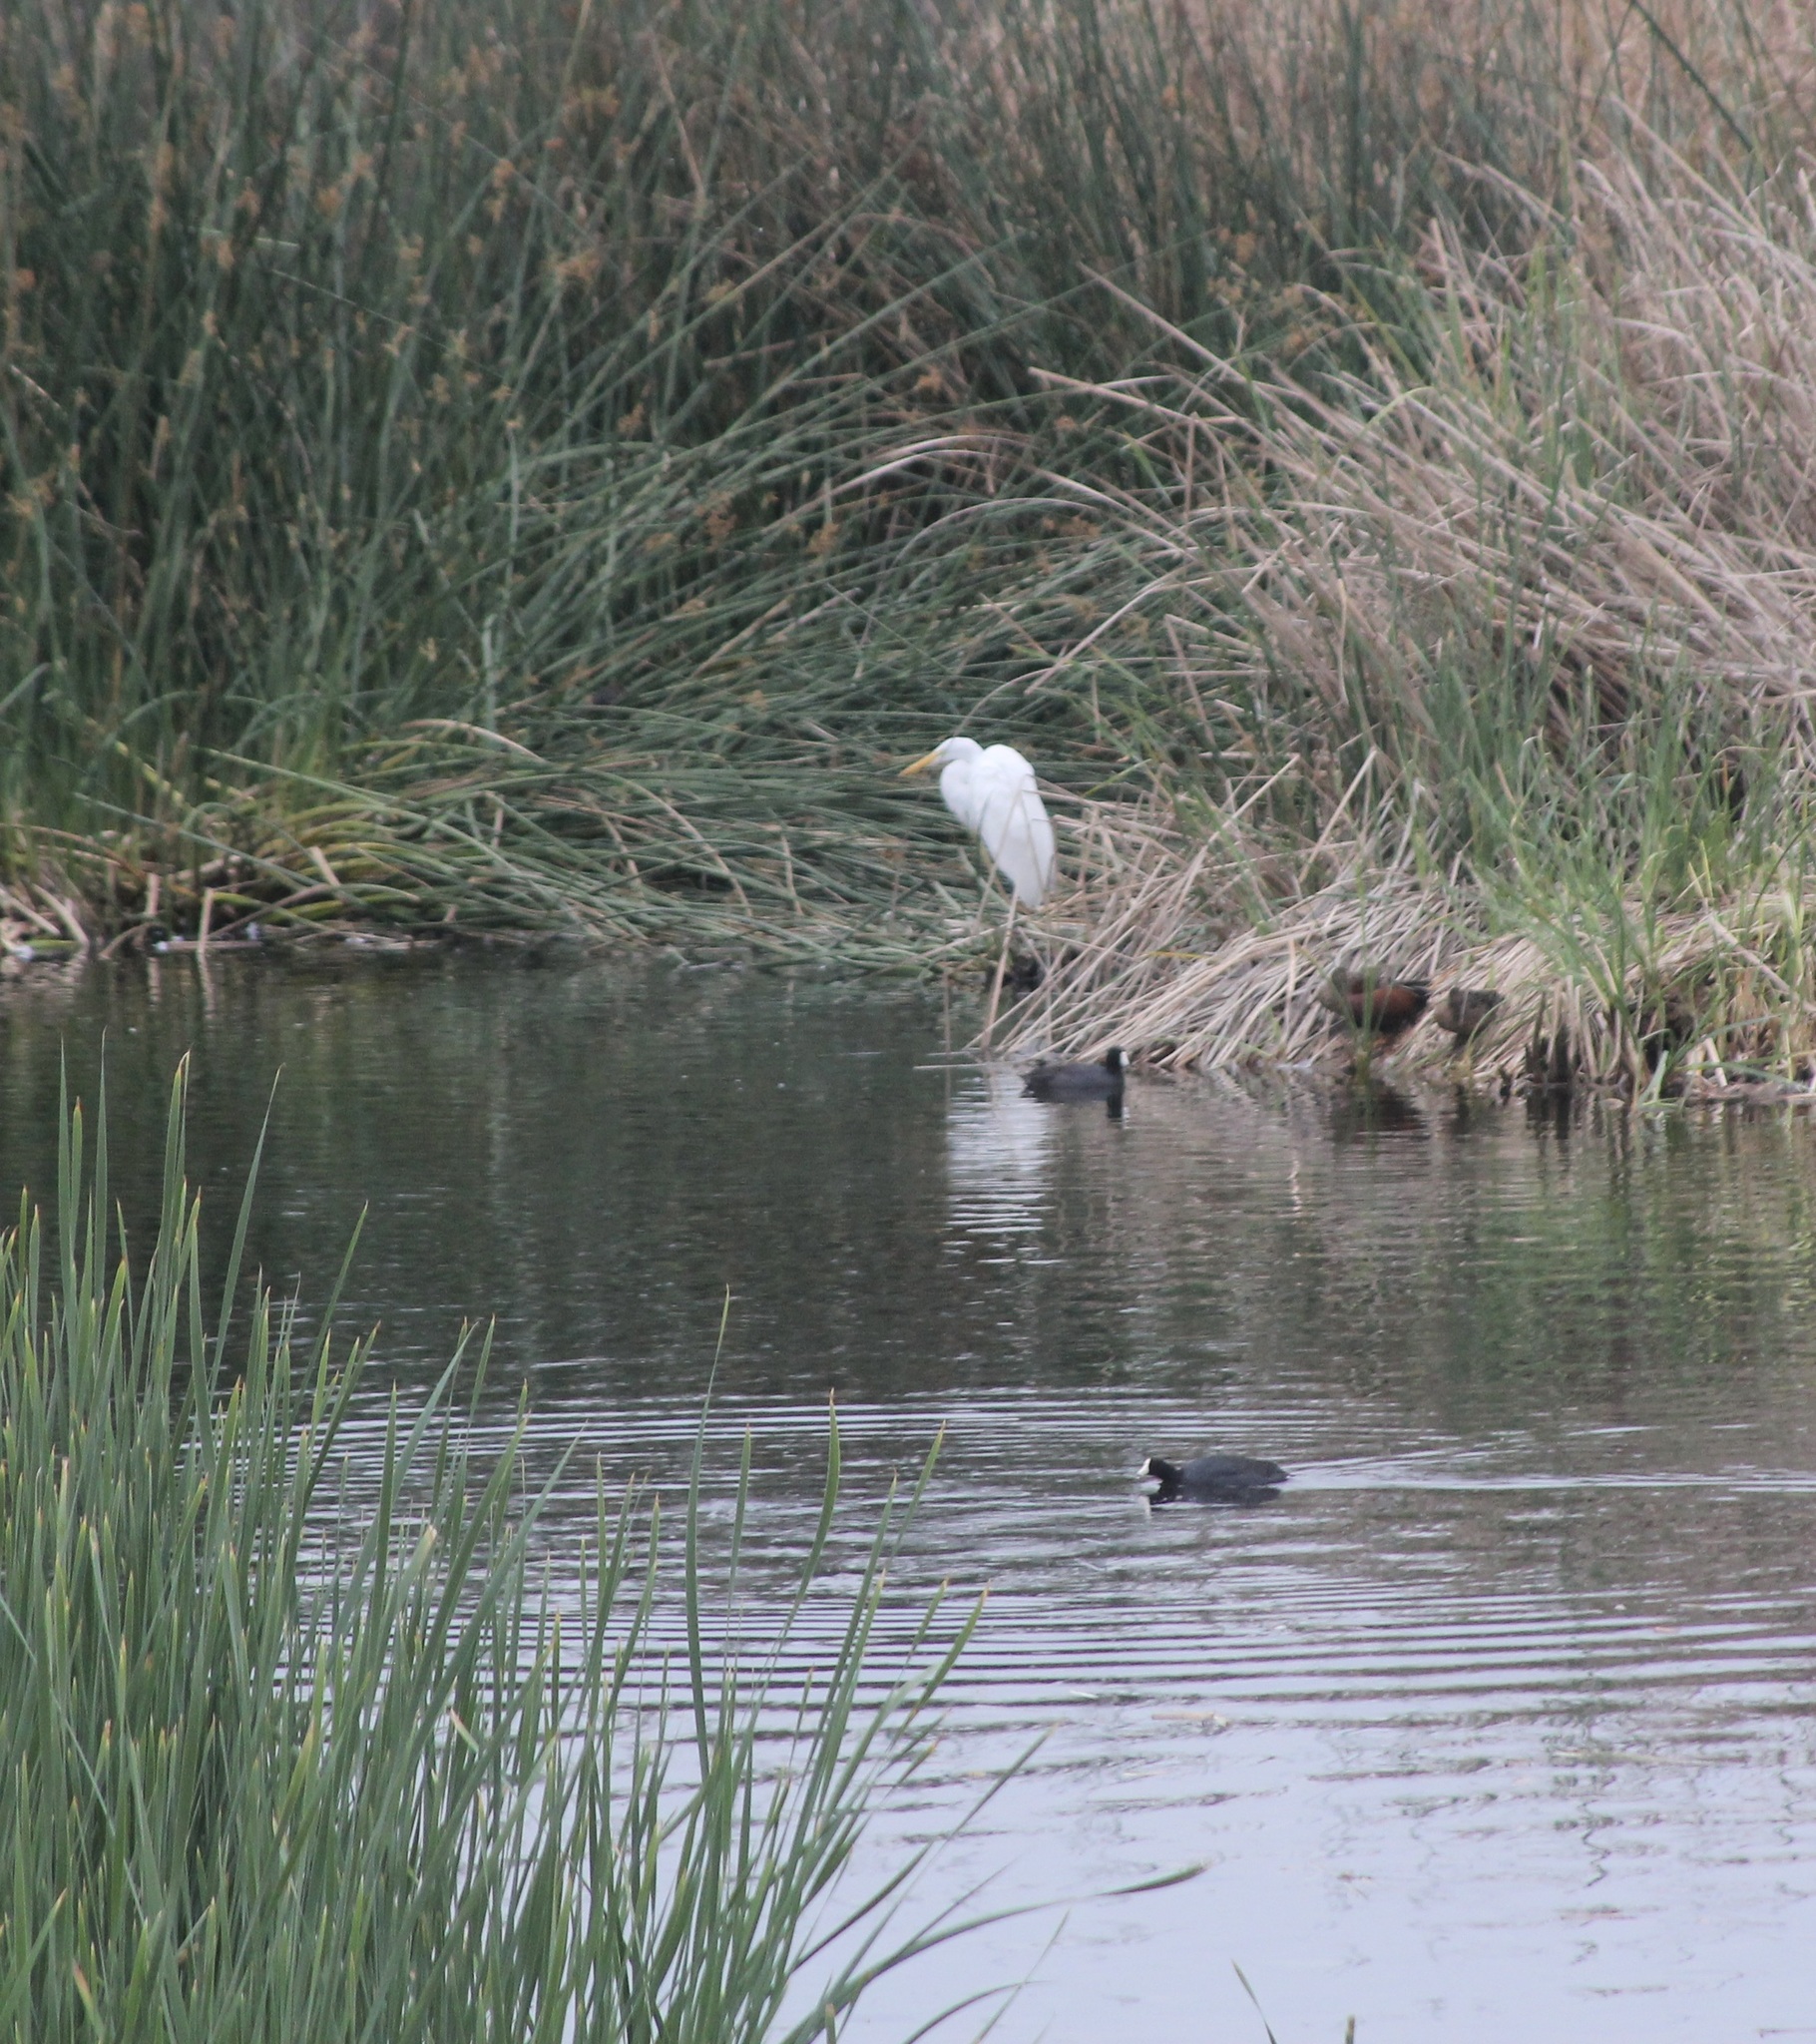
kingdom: Animalia
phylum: Chordata
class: Aves
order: Pelecaniformes
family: Ardeidae
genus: Ardea
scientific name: Ardea alba
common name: Great egret
